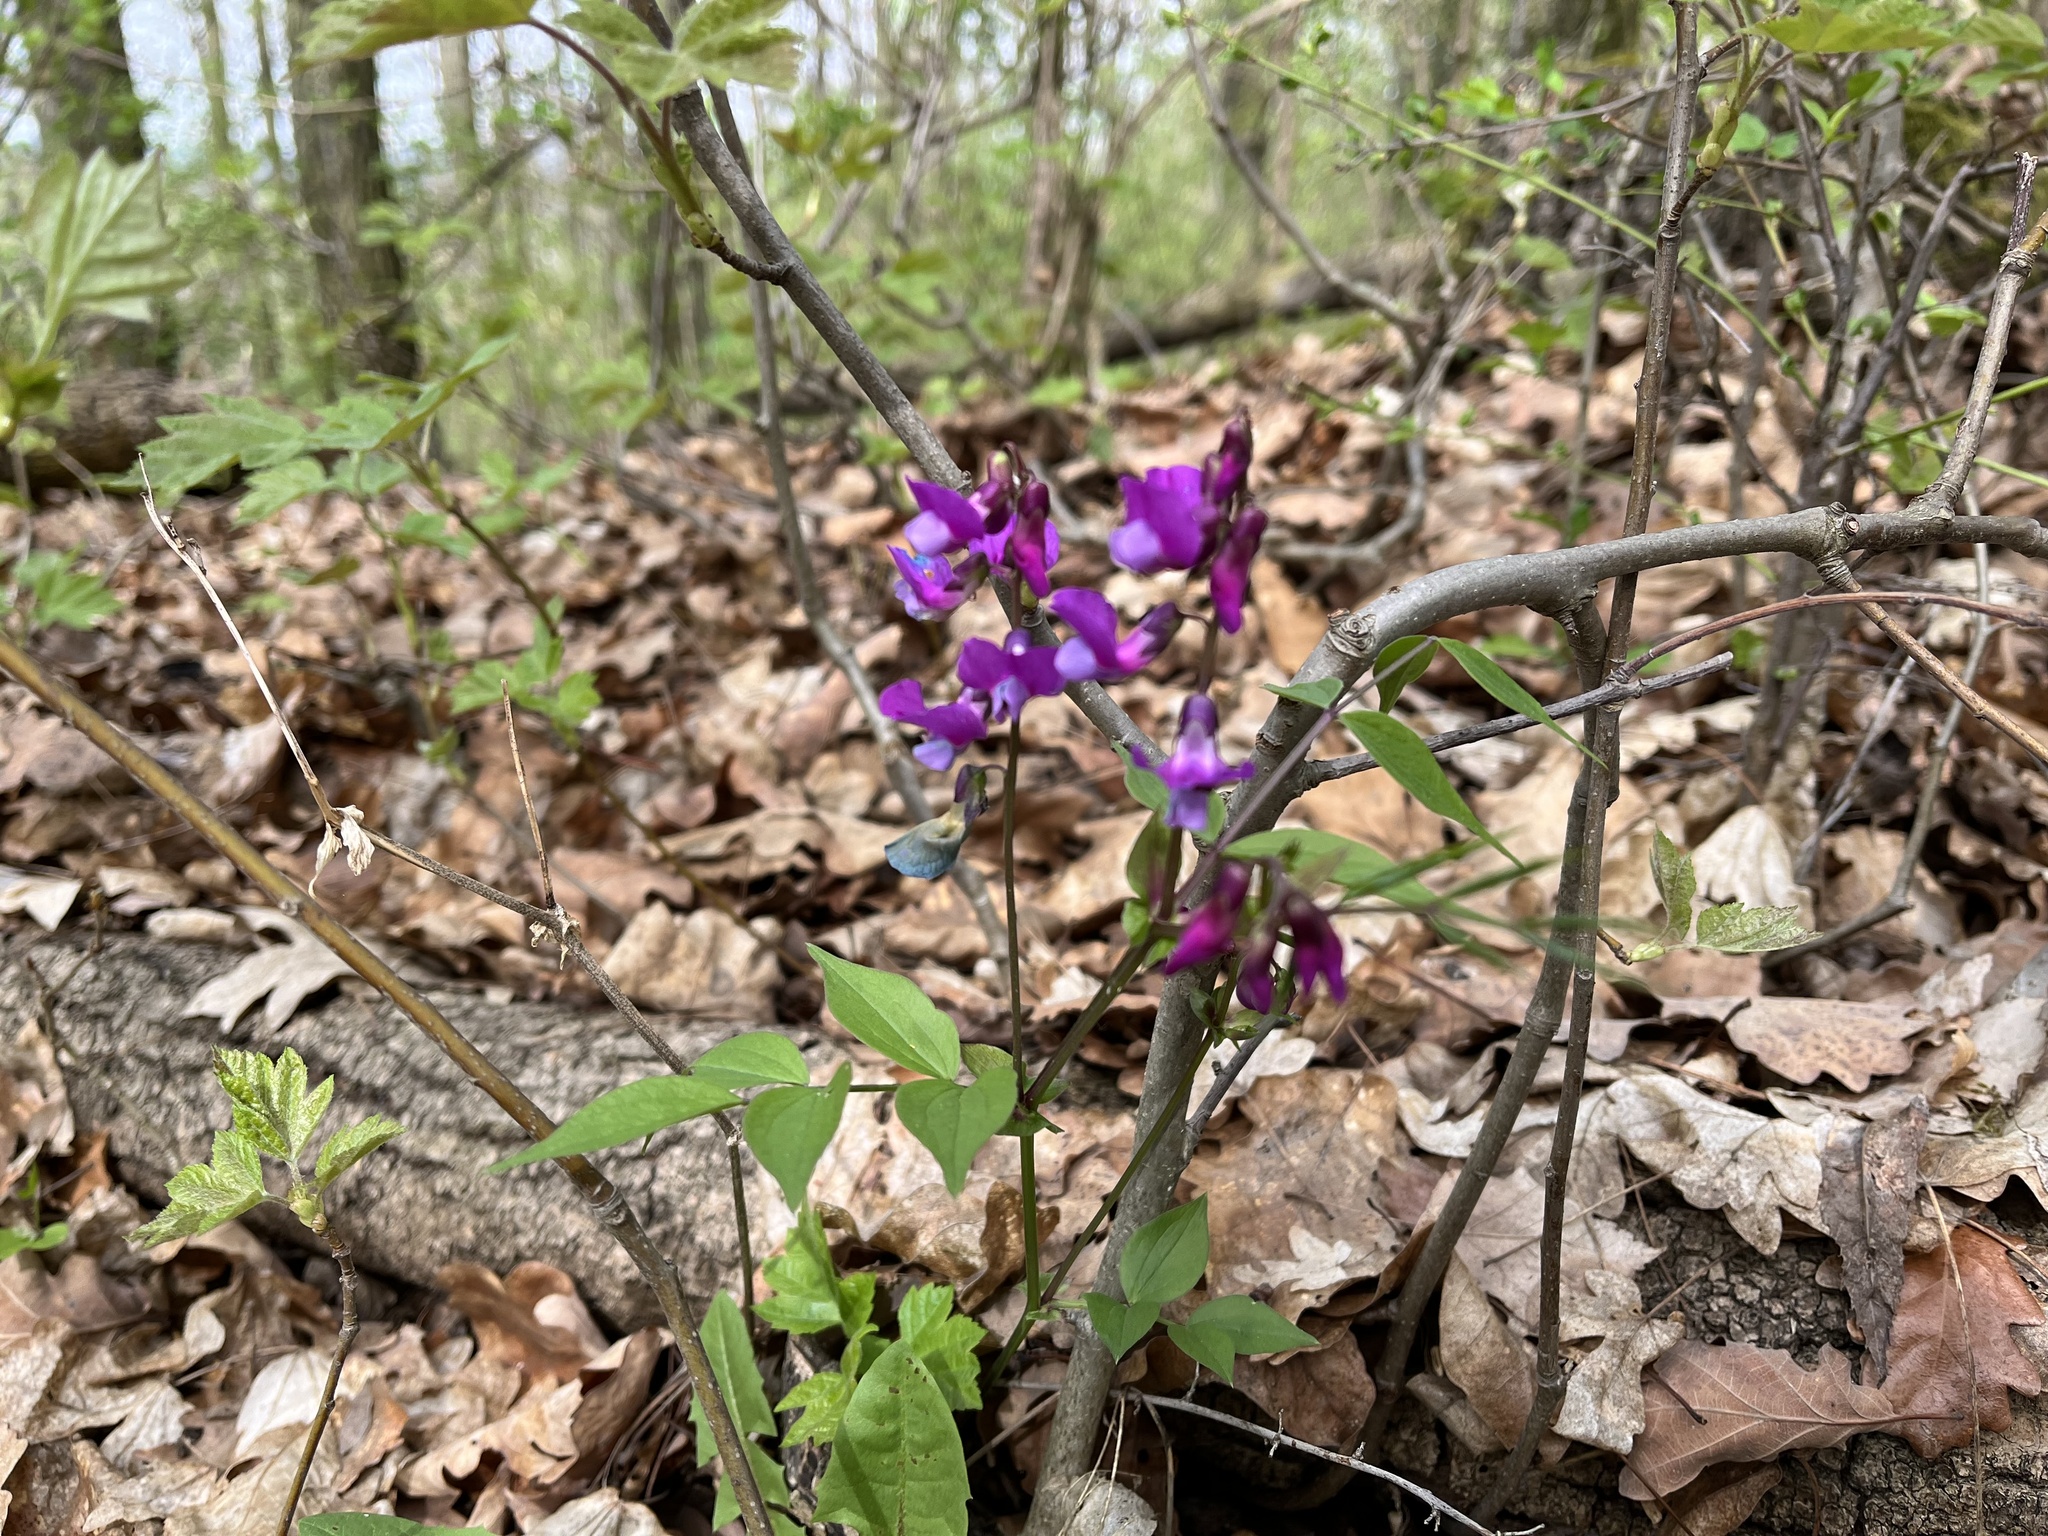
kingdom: Plantae
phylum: Tracheophyta
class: Magnoliopsida
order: Fabales
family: Fabaceae
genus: Lathyrus
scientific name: Lathyrus vernus
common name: Spring pea
